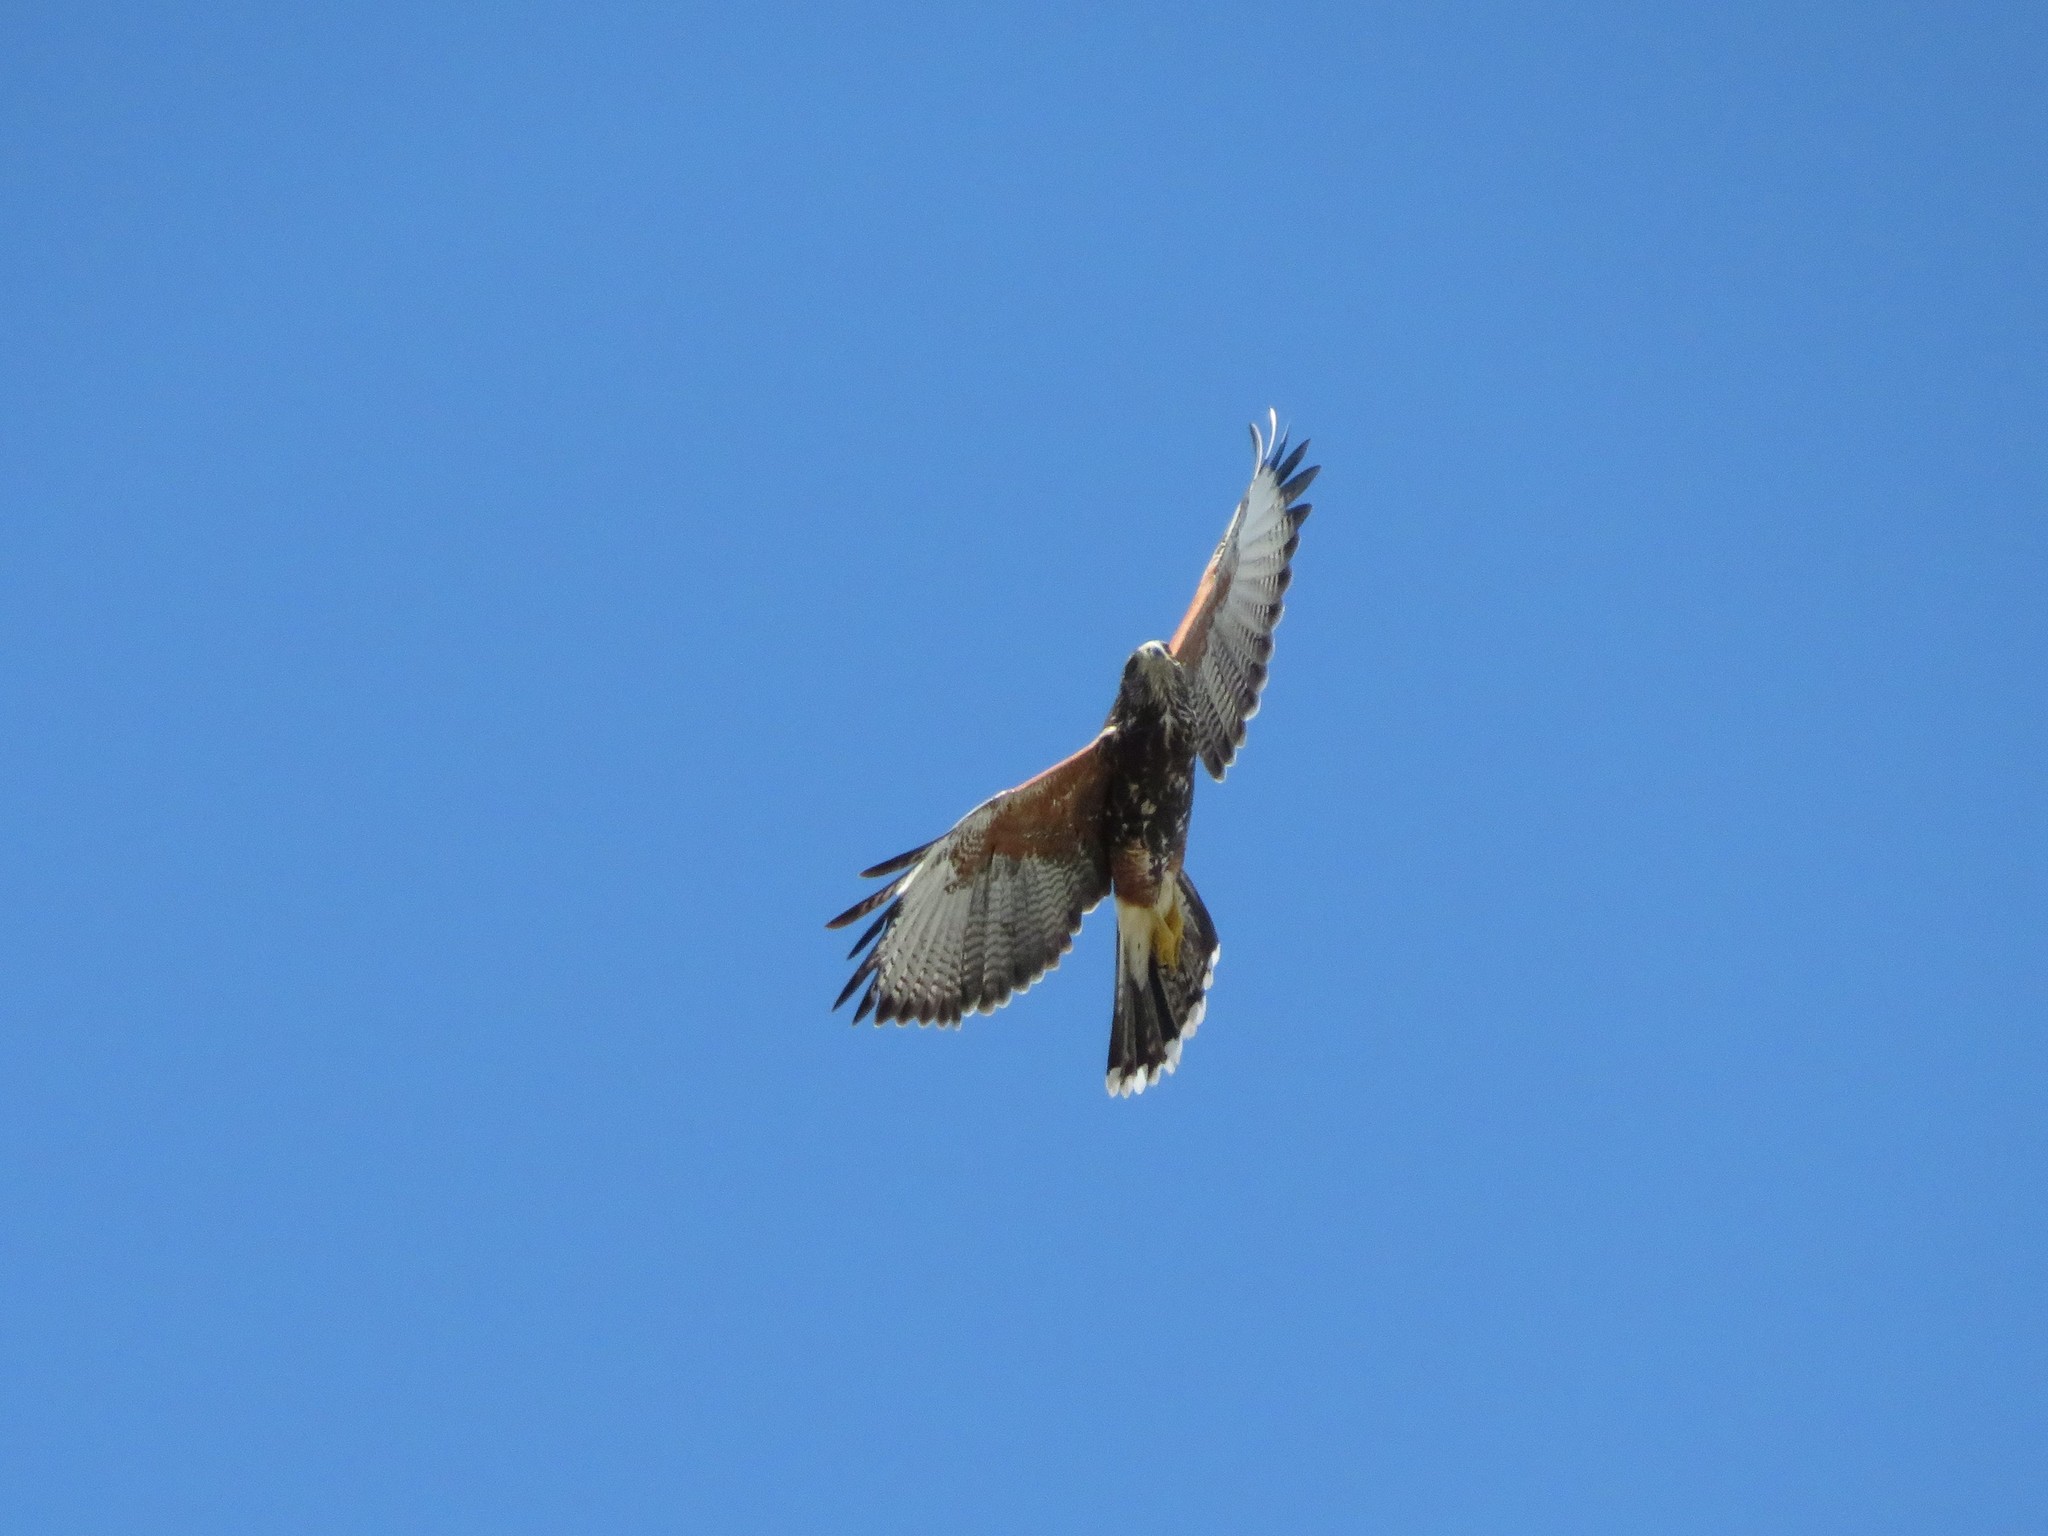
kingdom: Animalia
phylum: Chordata
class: Aves
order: Accipitriformes
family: Accipitridae
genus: Parabuteo
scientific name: Parabuteo unicinctus
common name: Harris's hawk
